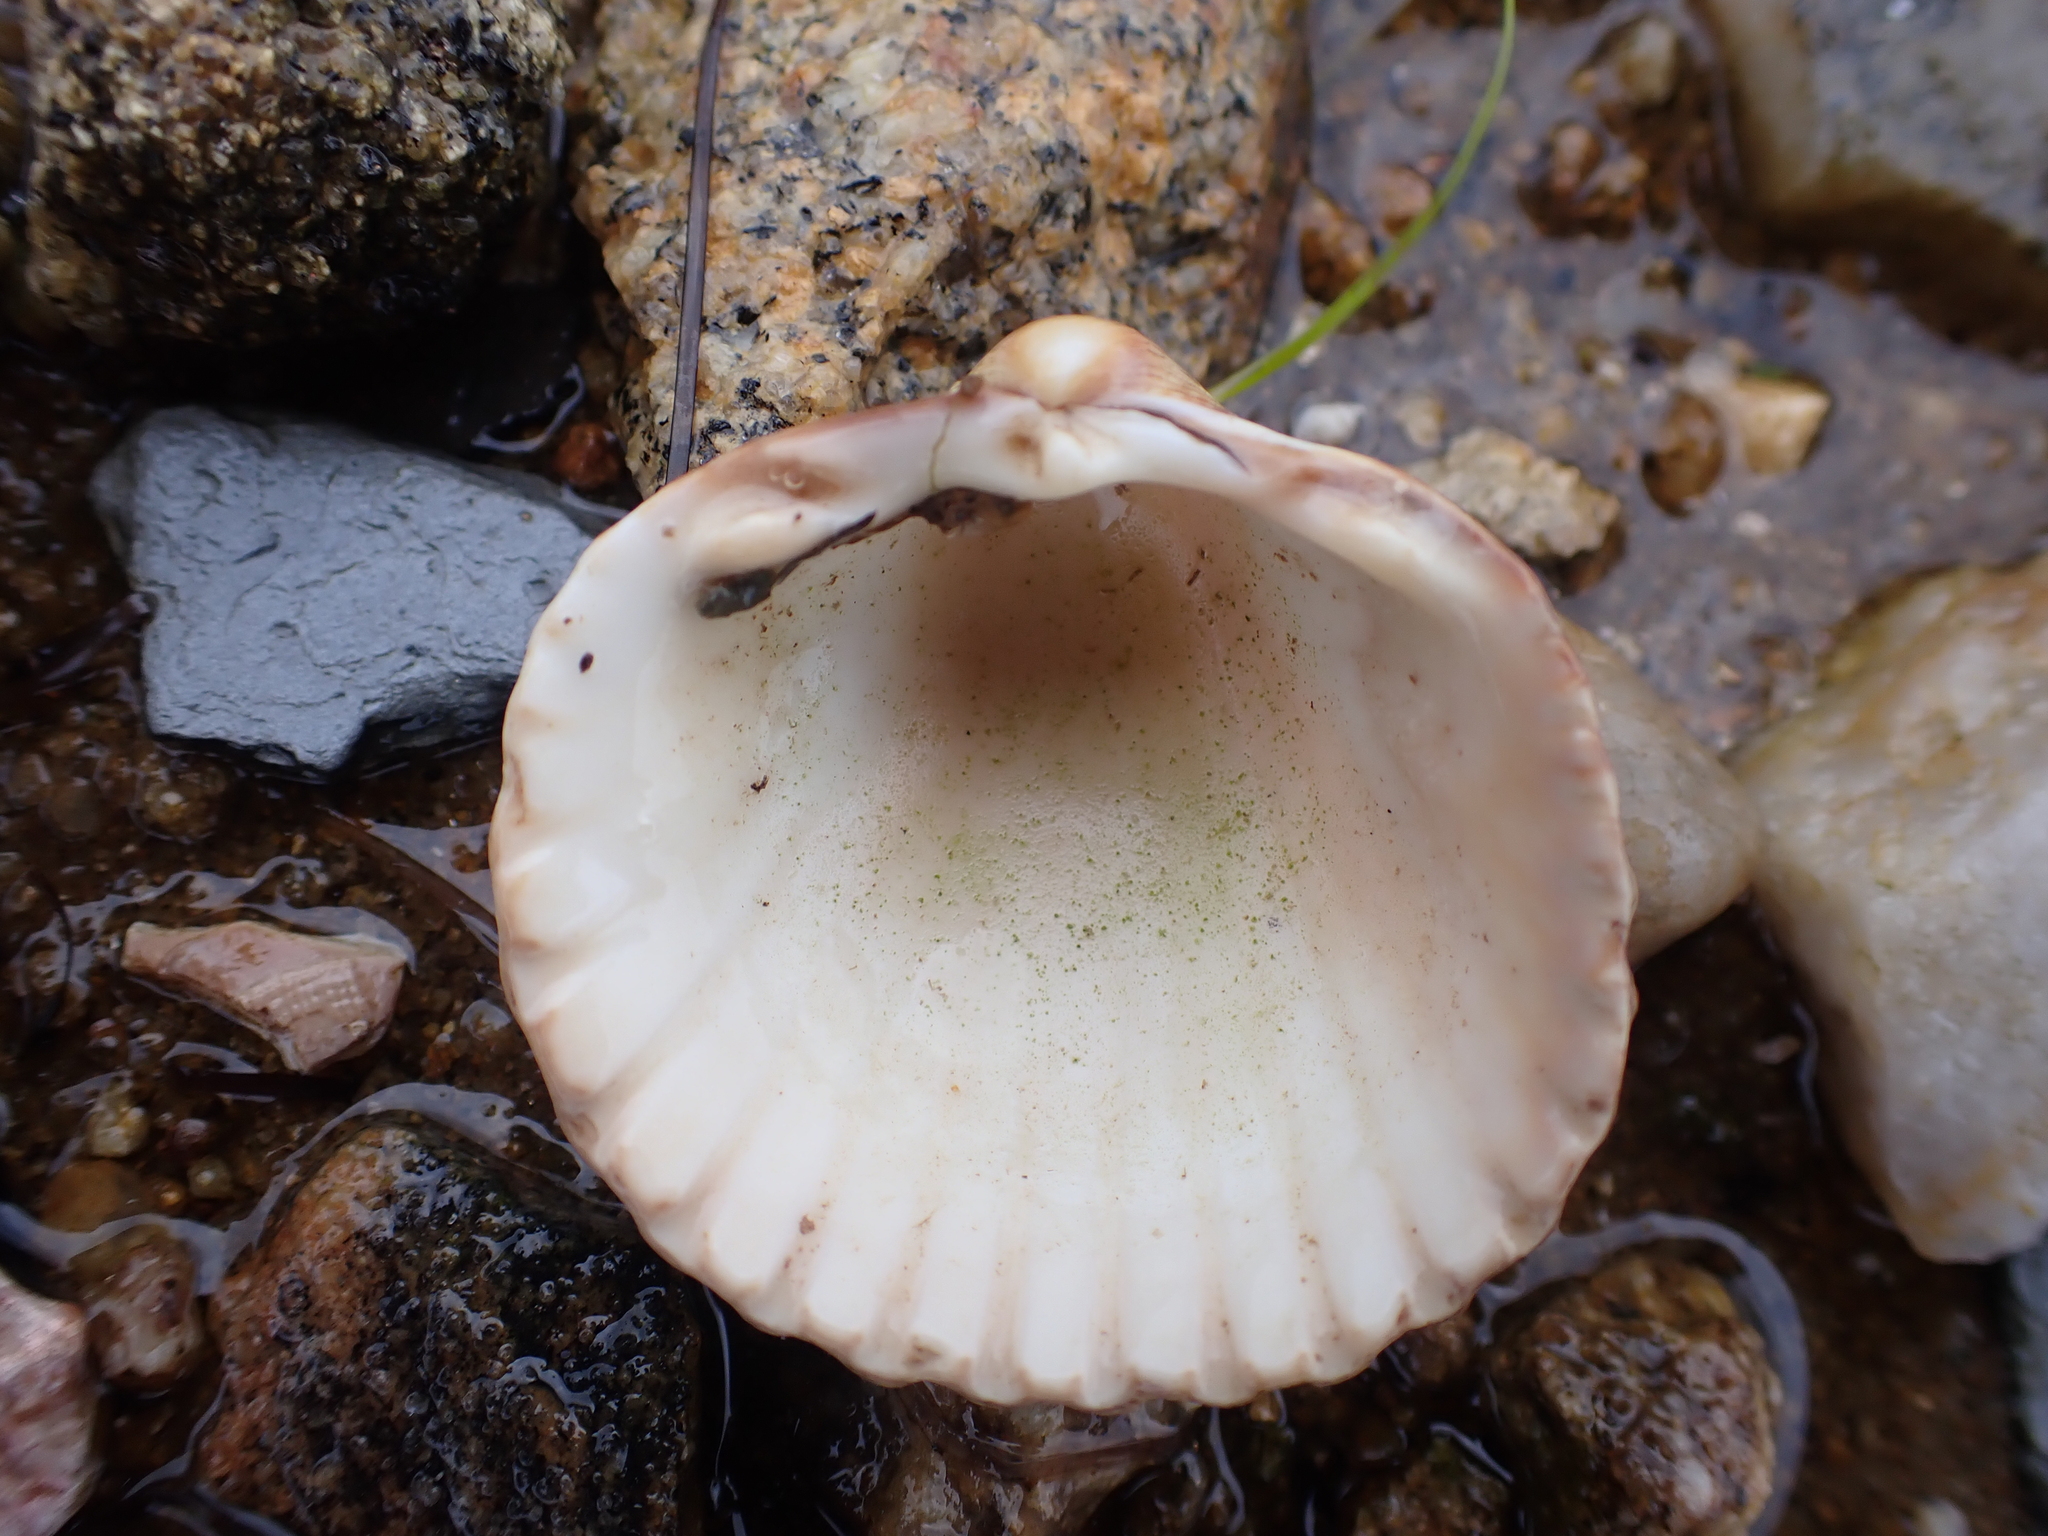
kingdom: Animalia
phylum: Mollusca
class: Bivalvia
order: Cardiida
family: Cardiidae
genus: Acanthocardia
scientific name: Acanthocardia tuberculata
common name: Rough cockle
